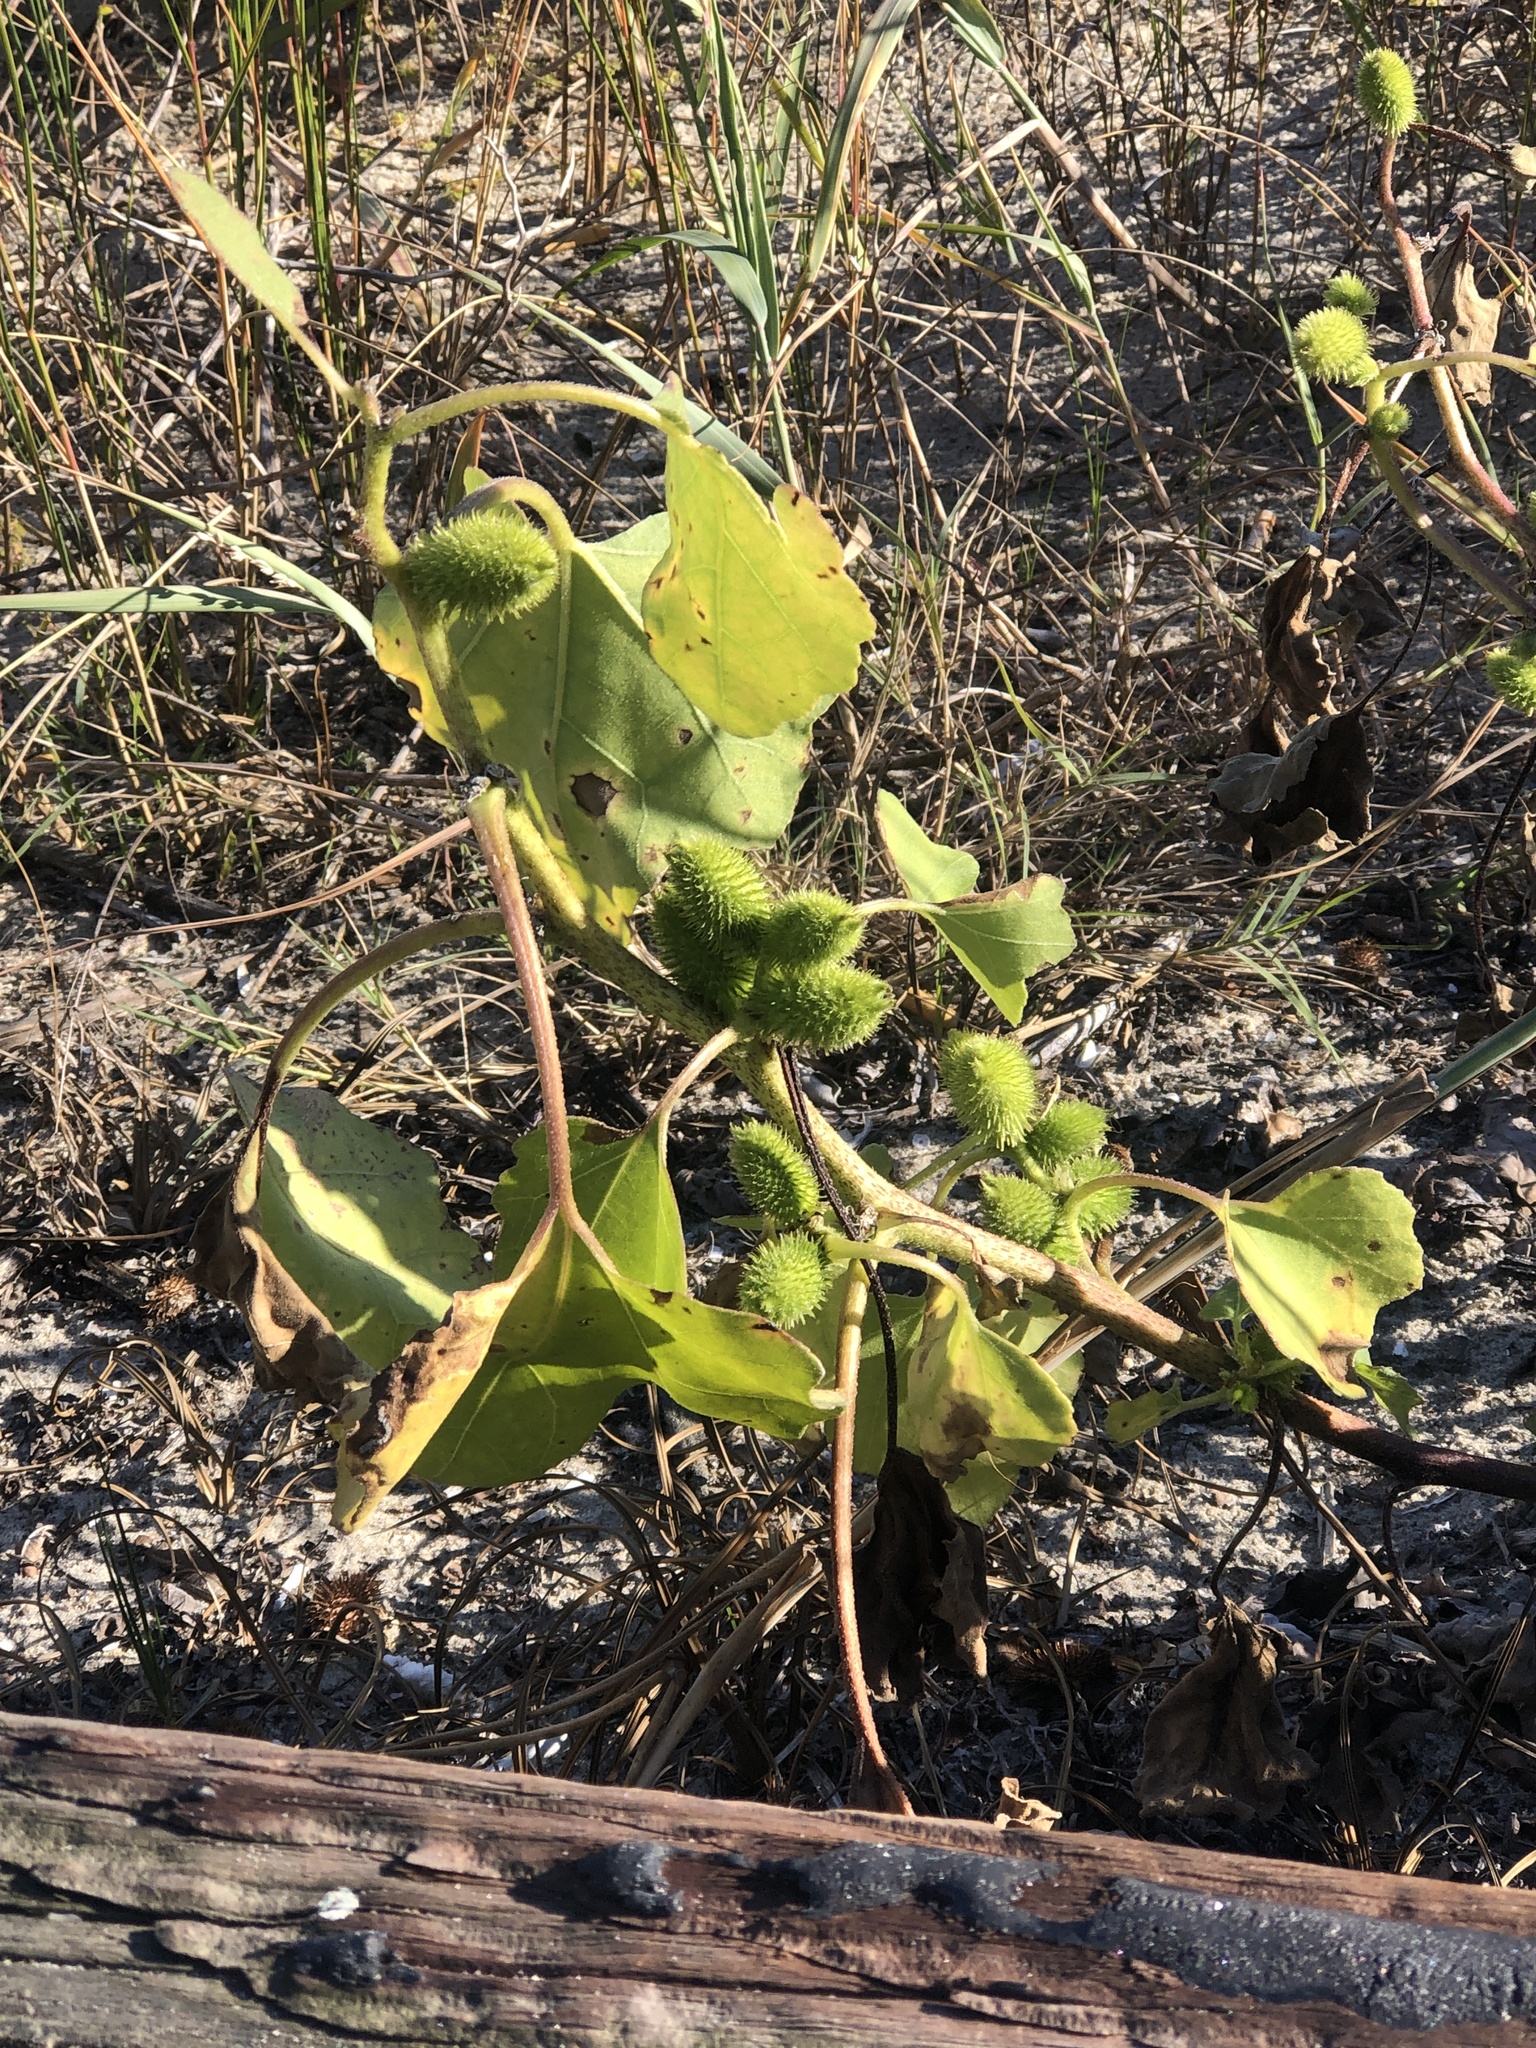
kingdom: Plantae
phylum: Tracheophyta
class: Magnoliopsida
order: Asterales
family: Asteraceae
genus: Xanthium
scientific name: Xanthium strumarium
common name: Rough cocklebur
